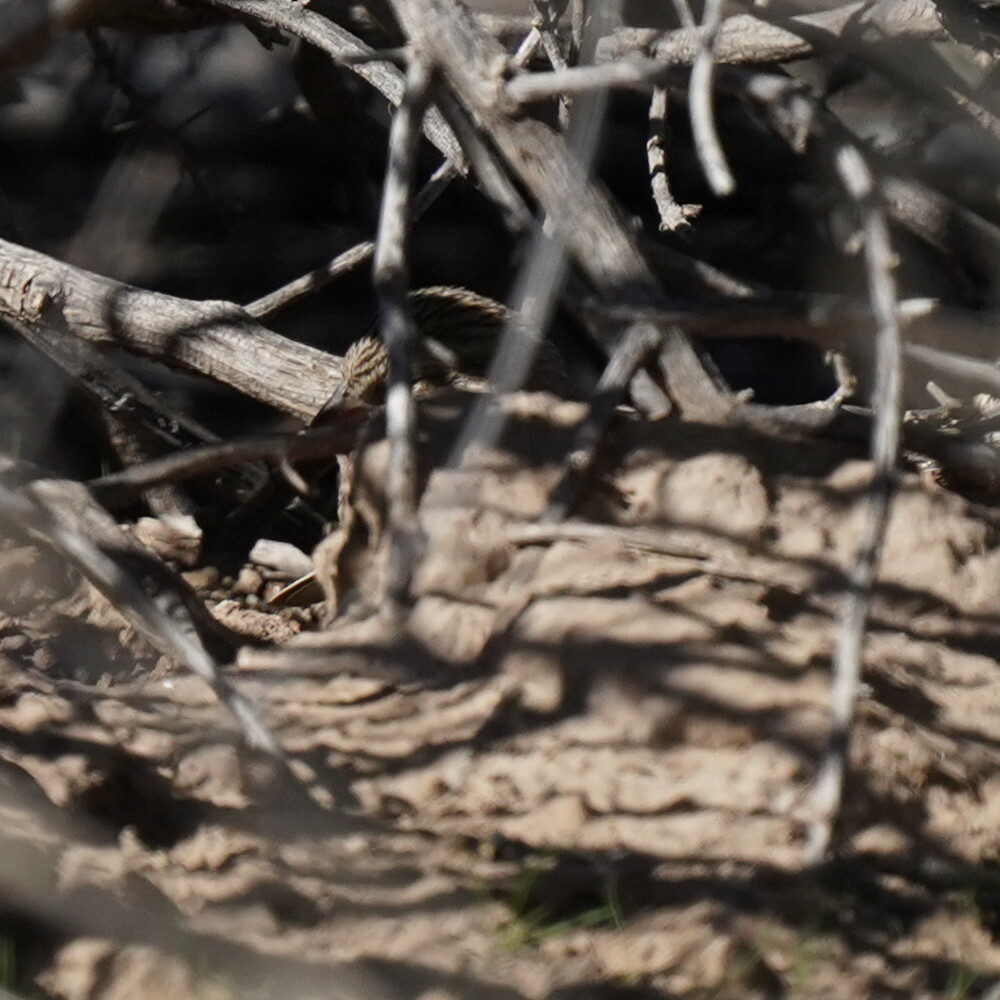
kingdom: Animalia
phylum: Chordata
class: Aves
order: Passeriformes
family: Passerellidae
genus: Spizella
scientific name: Spizella breweri
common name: Brewer's sparrow
